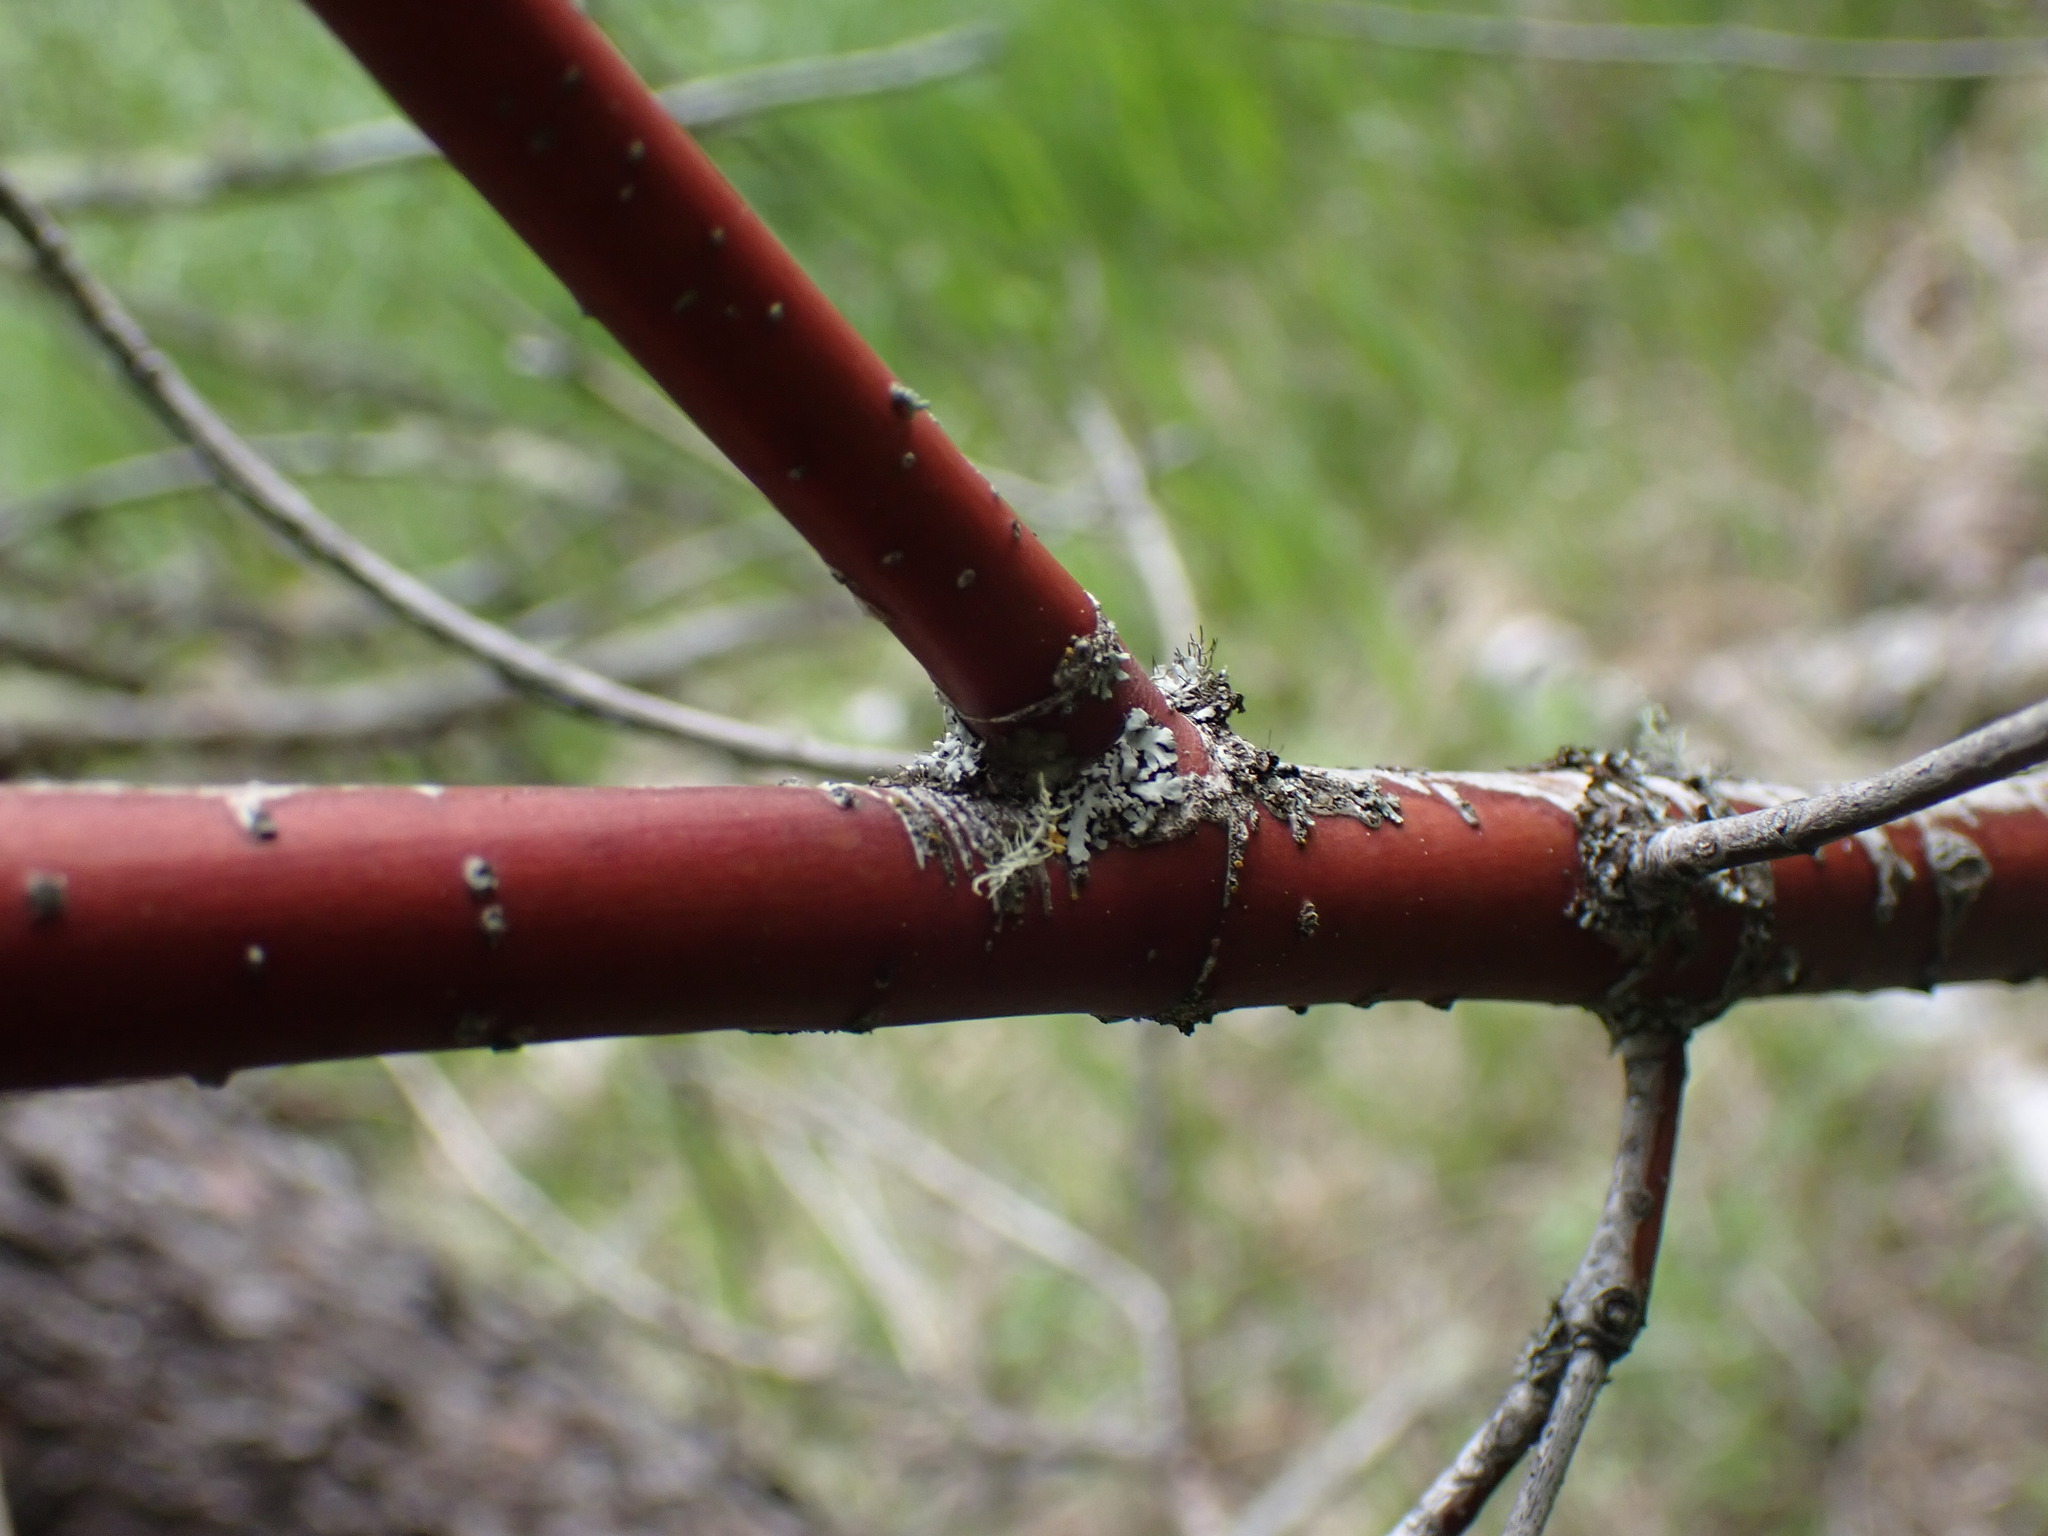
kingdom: Plantae
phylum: Tracheophyta
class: Magnoliopsida
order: Cornales
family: Cornaceae
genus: Cornus
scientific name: Cornus sericea
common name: Red-osier dogwood
